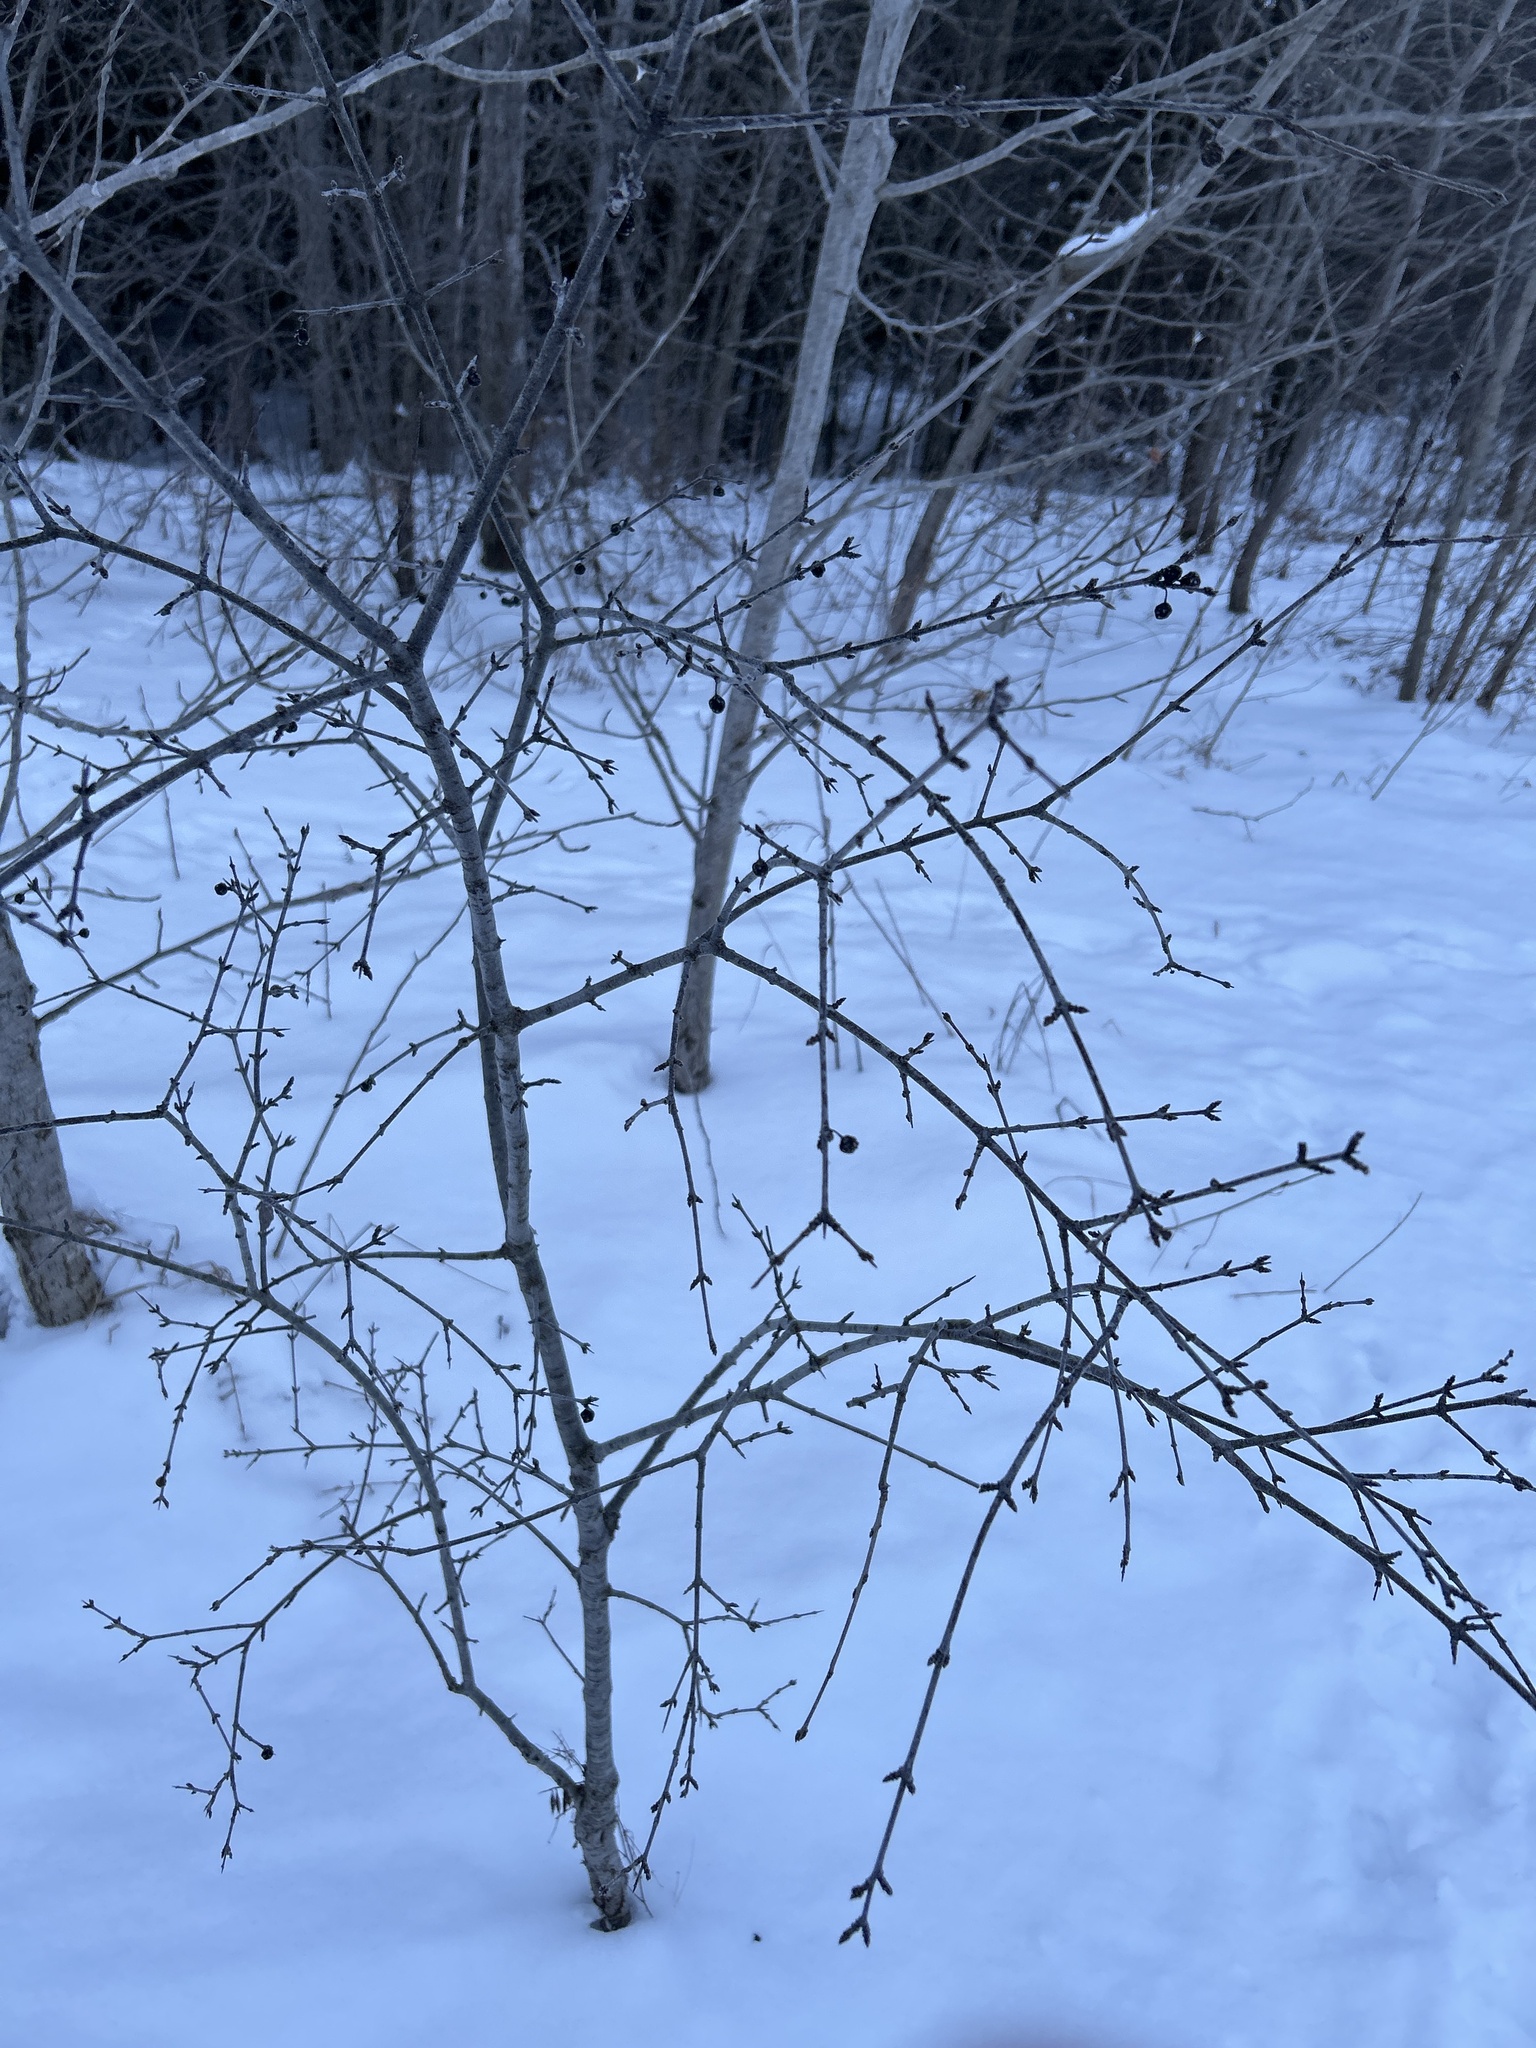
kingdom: Plantae
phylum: Tracheophyta
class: Magnoliopsida
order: Rosales
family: Rhamnaceae
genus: Rhamnus
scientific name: Rhamnus cathartica
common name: Common buckthorn
